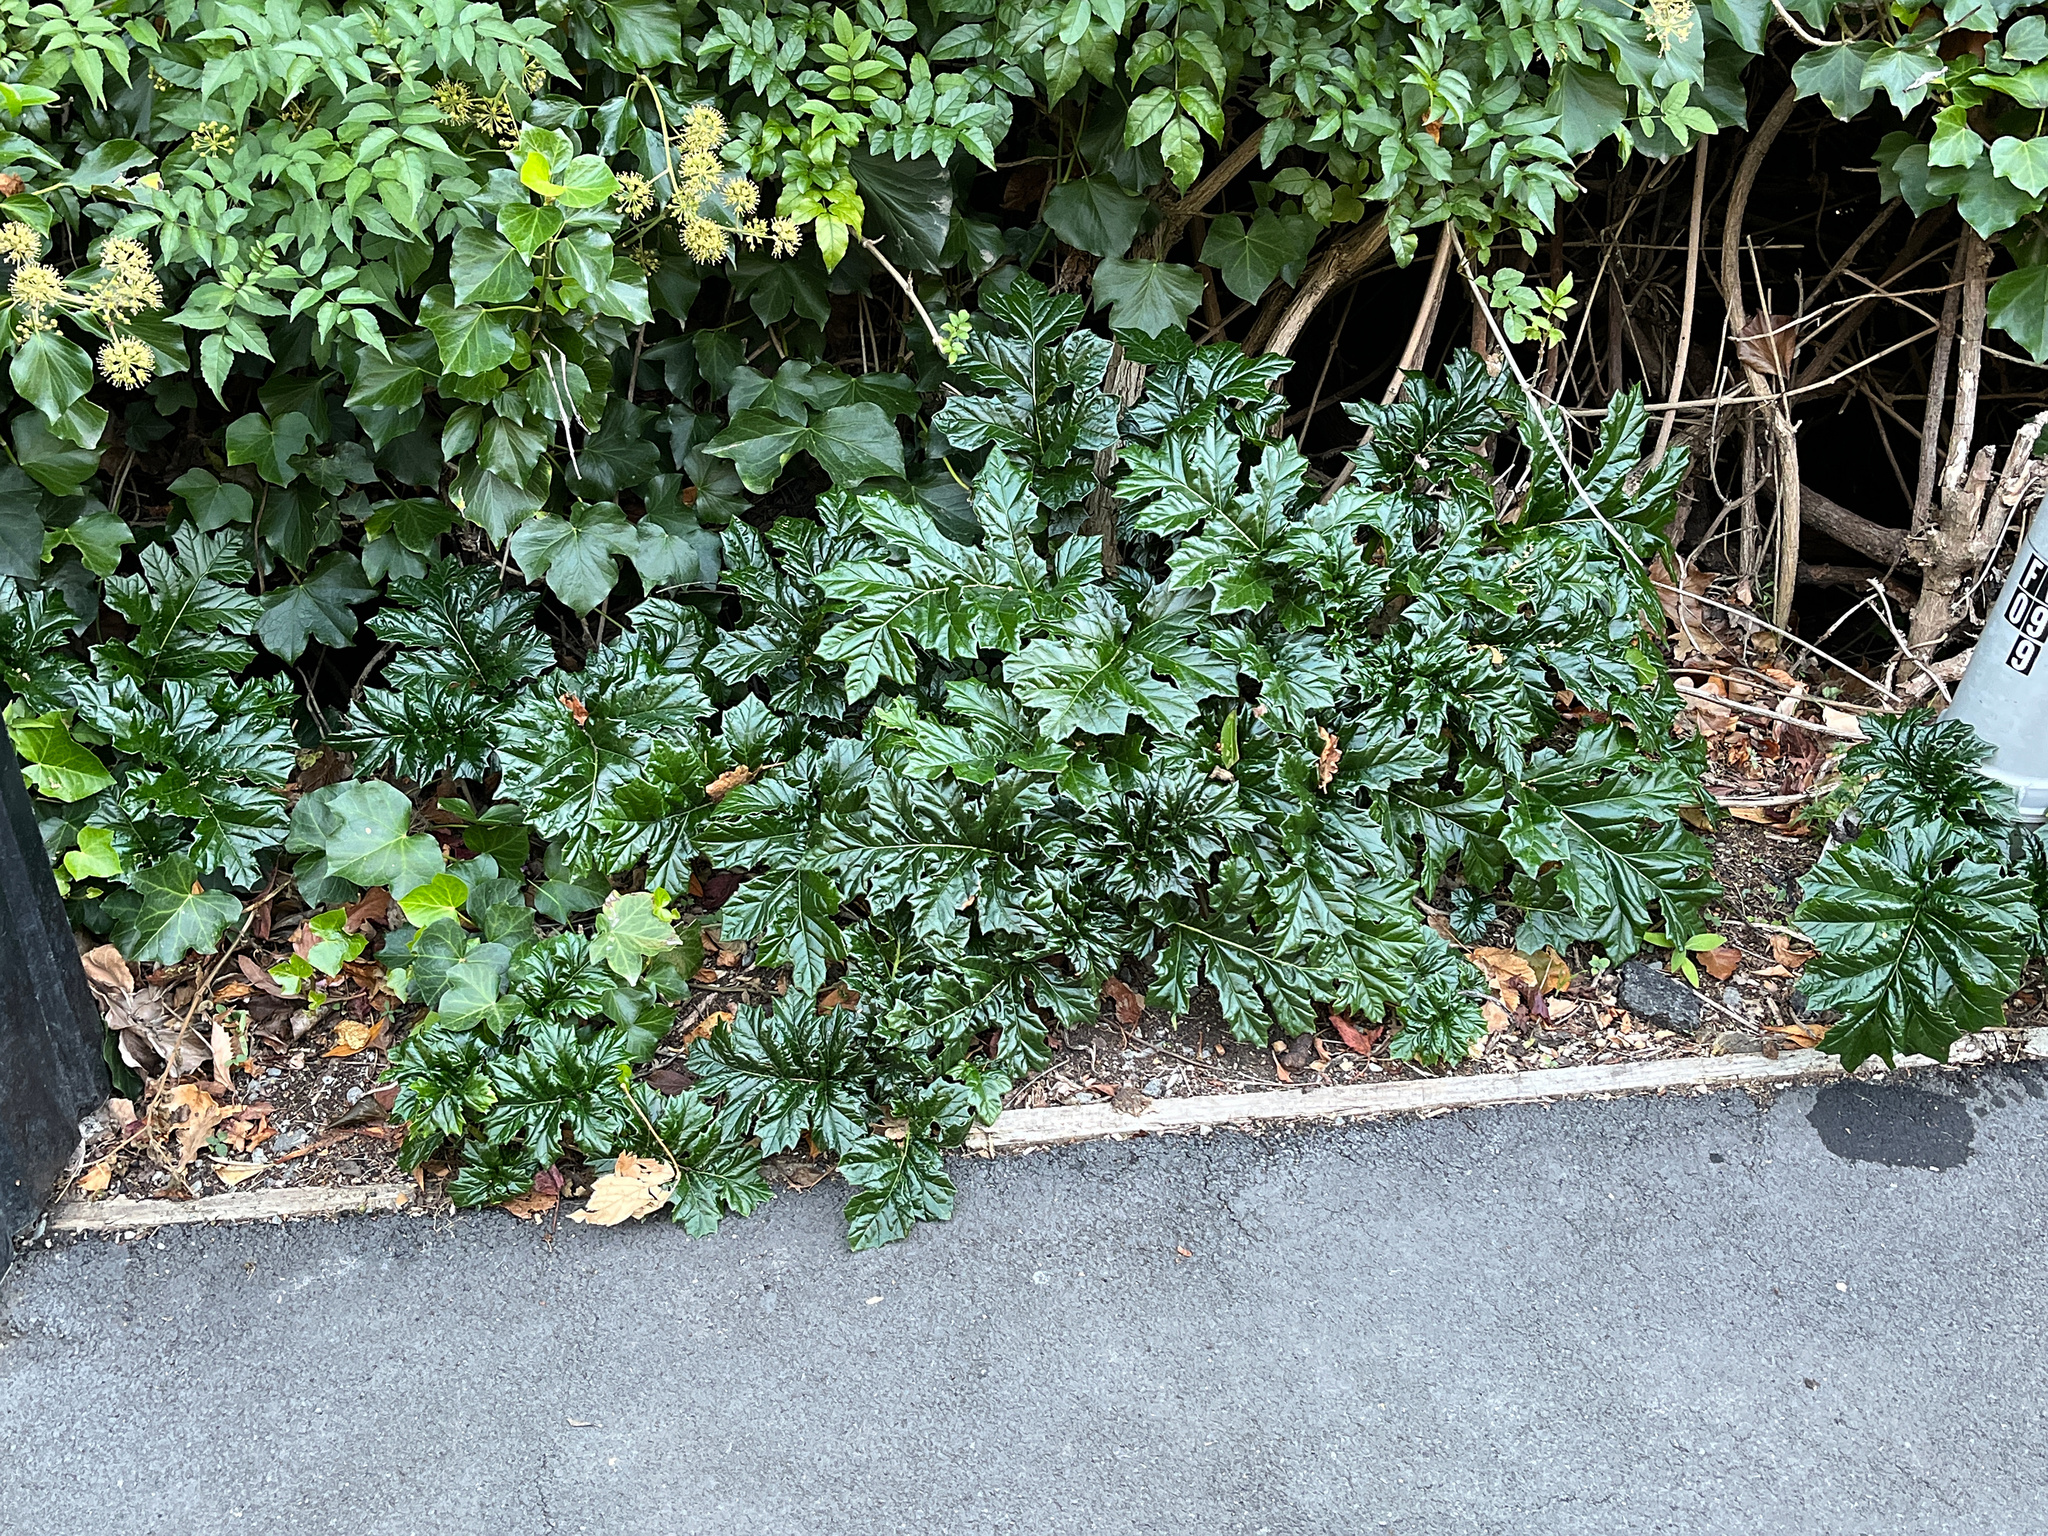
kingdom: Plantae
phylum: Tracheophyta
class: Magnoliopsida
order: Lamiales
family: Acanthaceae
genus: Acanthus
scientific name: Acanthus mollis
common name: Bear's-breech
